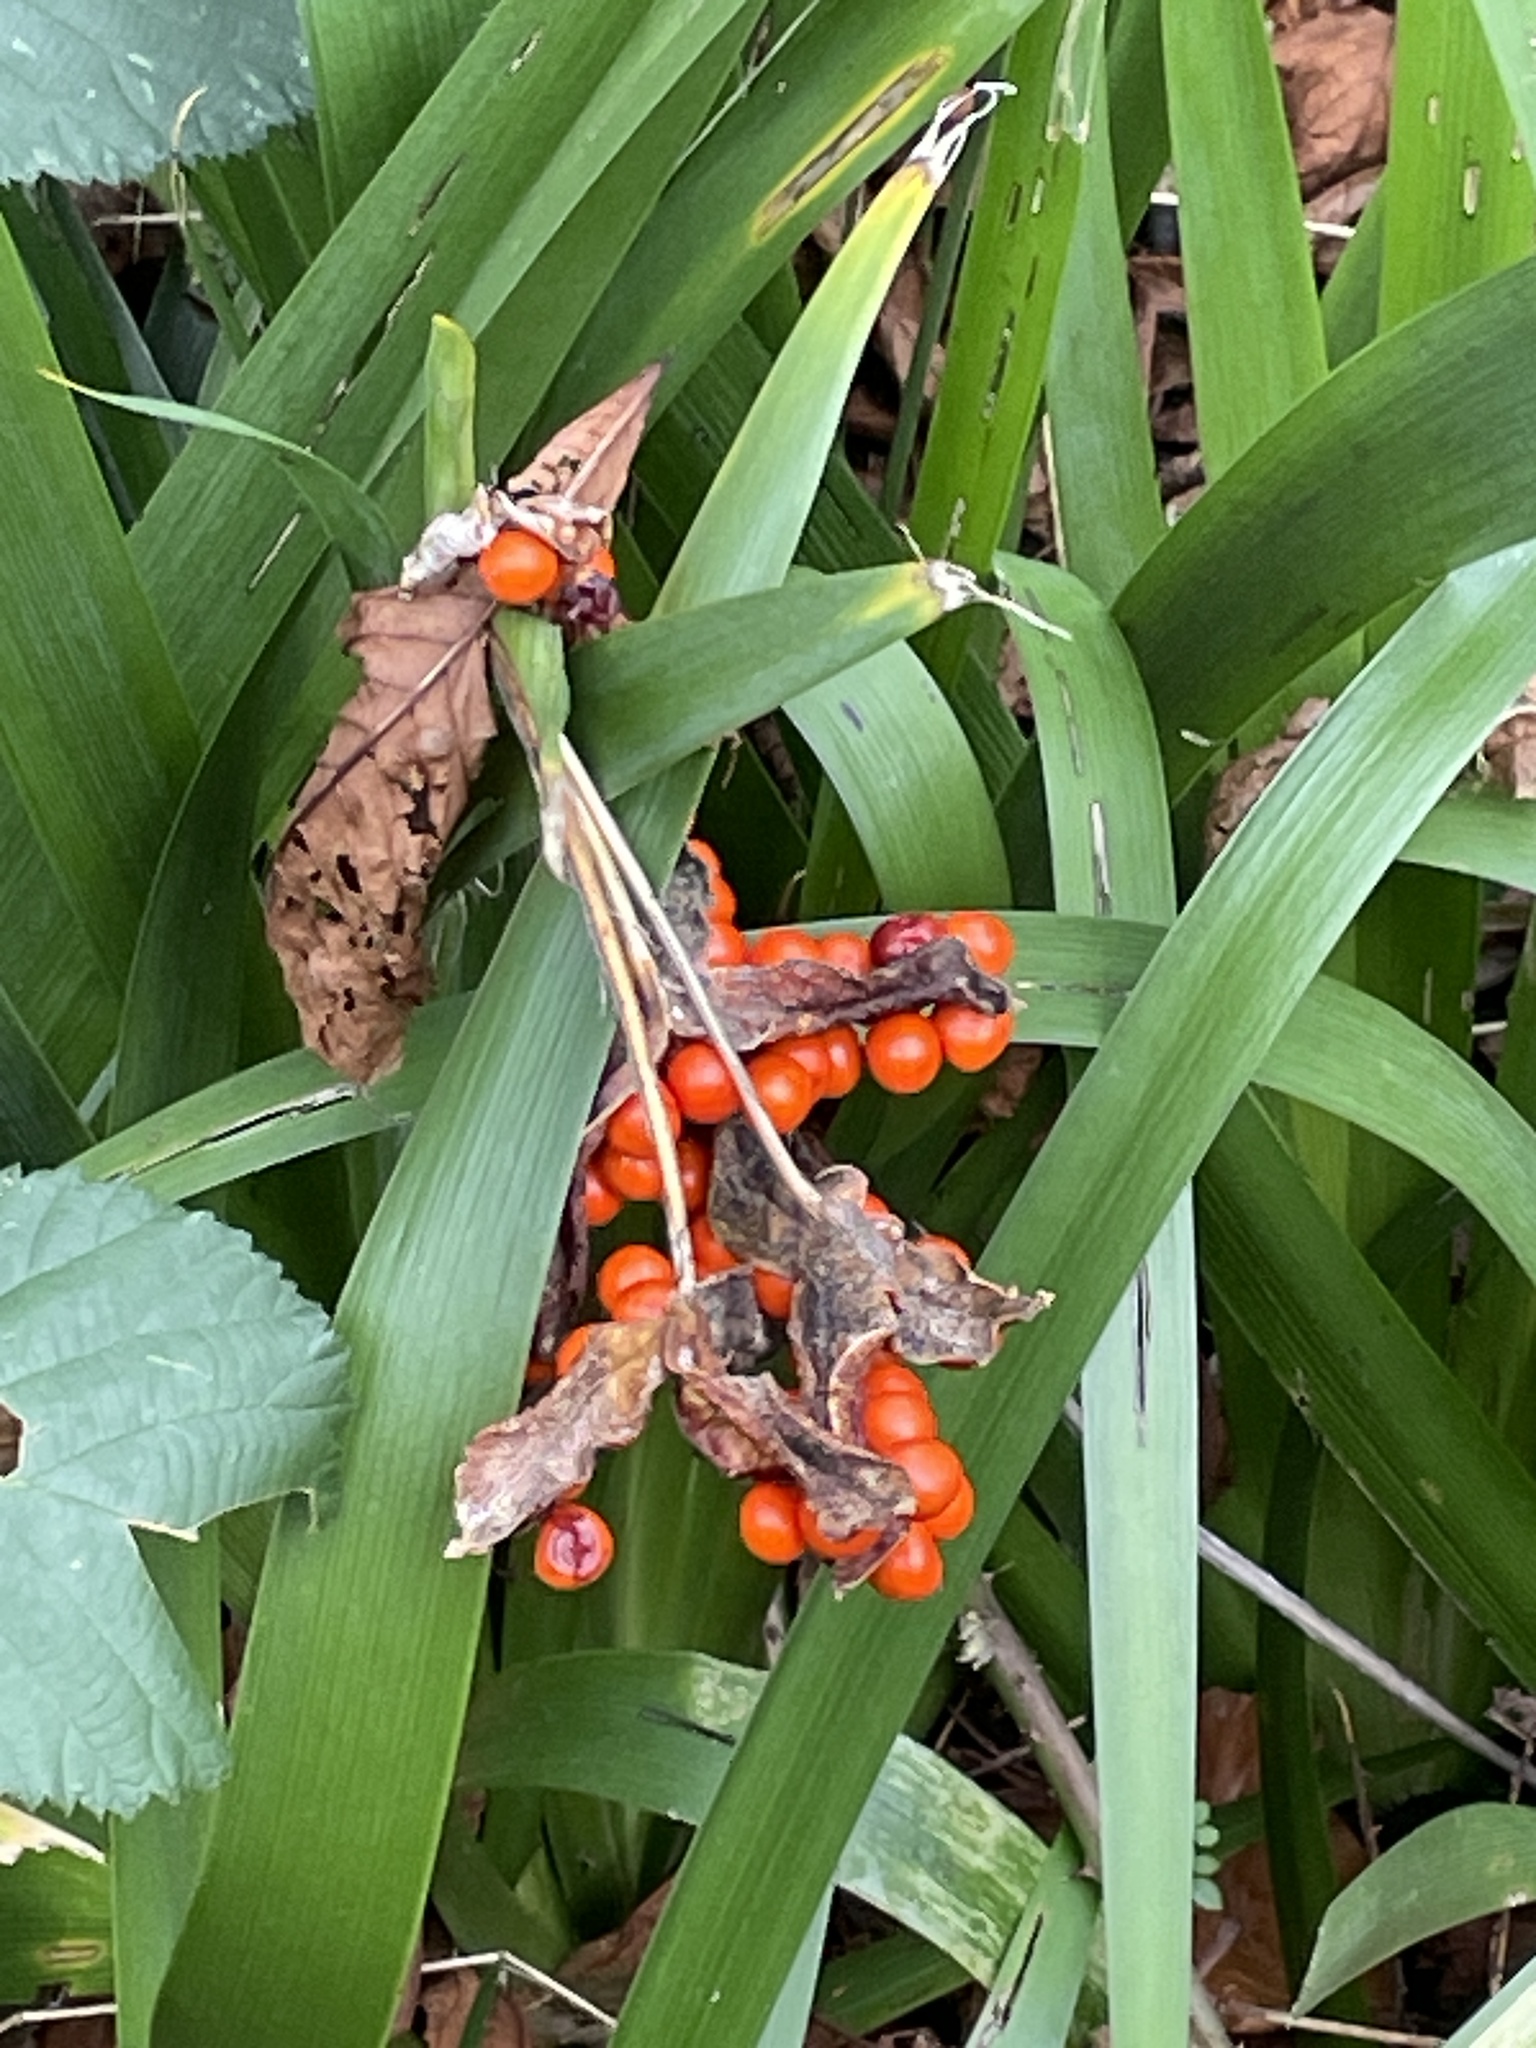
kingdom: Plantae
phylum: Tracheophyta
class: Liliopsida
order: Asparagales
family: Iridaceae
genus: Iris
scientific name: Iris foetidissima
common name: Stinking iris
